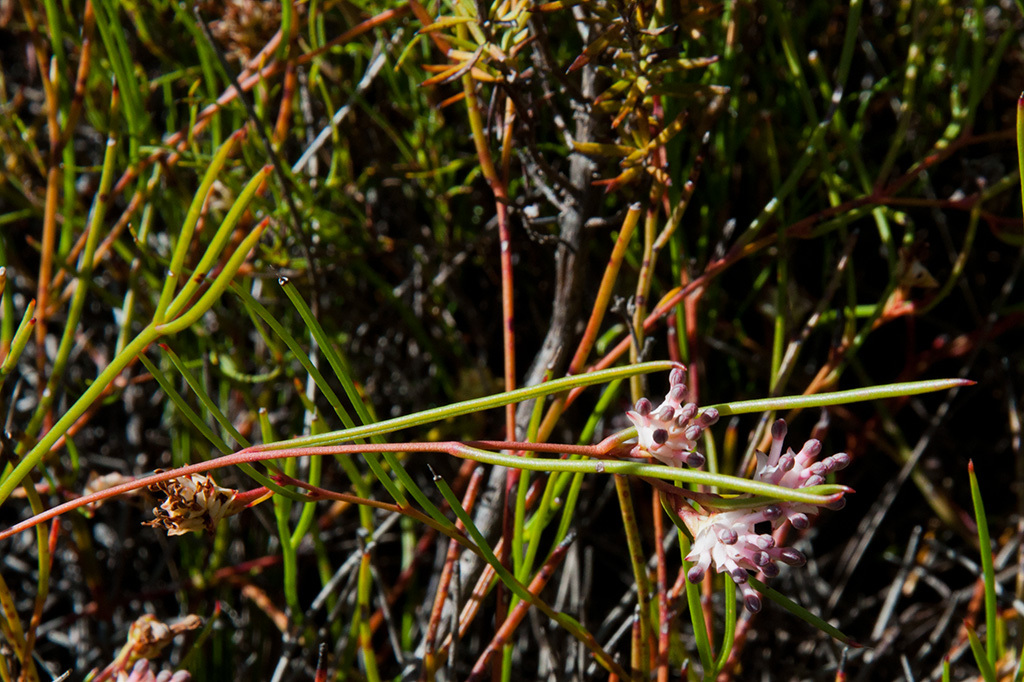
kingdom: Plantae
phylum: Tracheophyta
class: Magnoliopsida
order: Proteales
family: Proteaceae
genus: Serruria
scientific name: Serruria flagellifolia
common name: Houwhoek spiderhead
